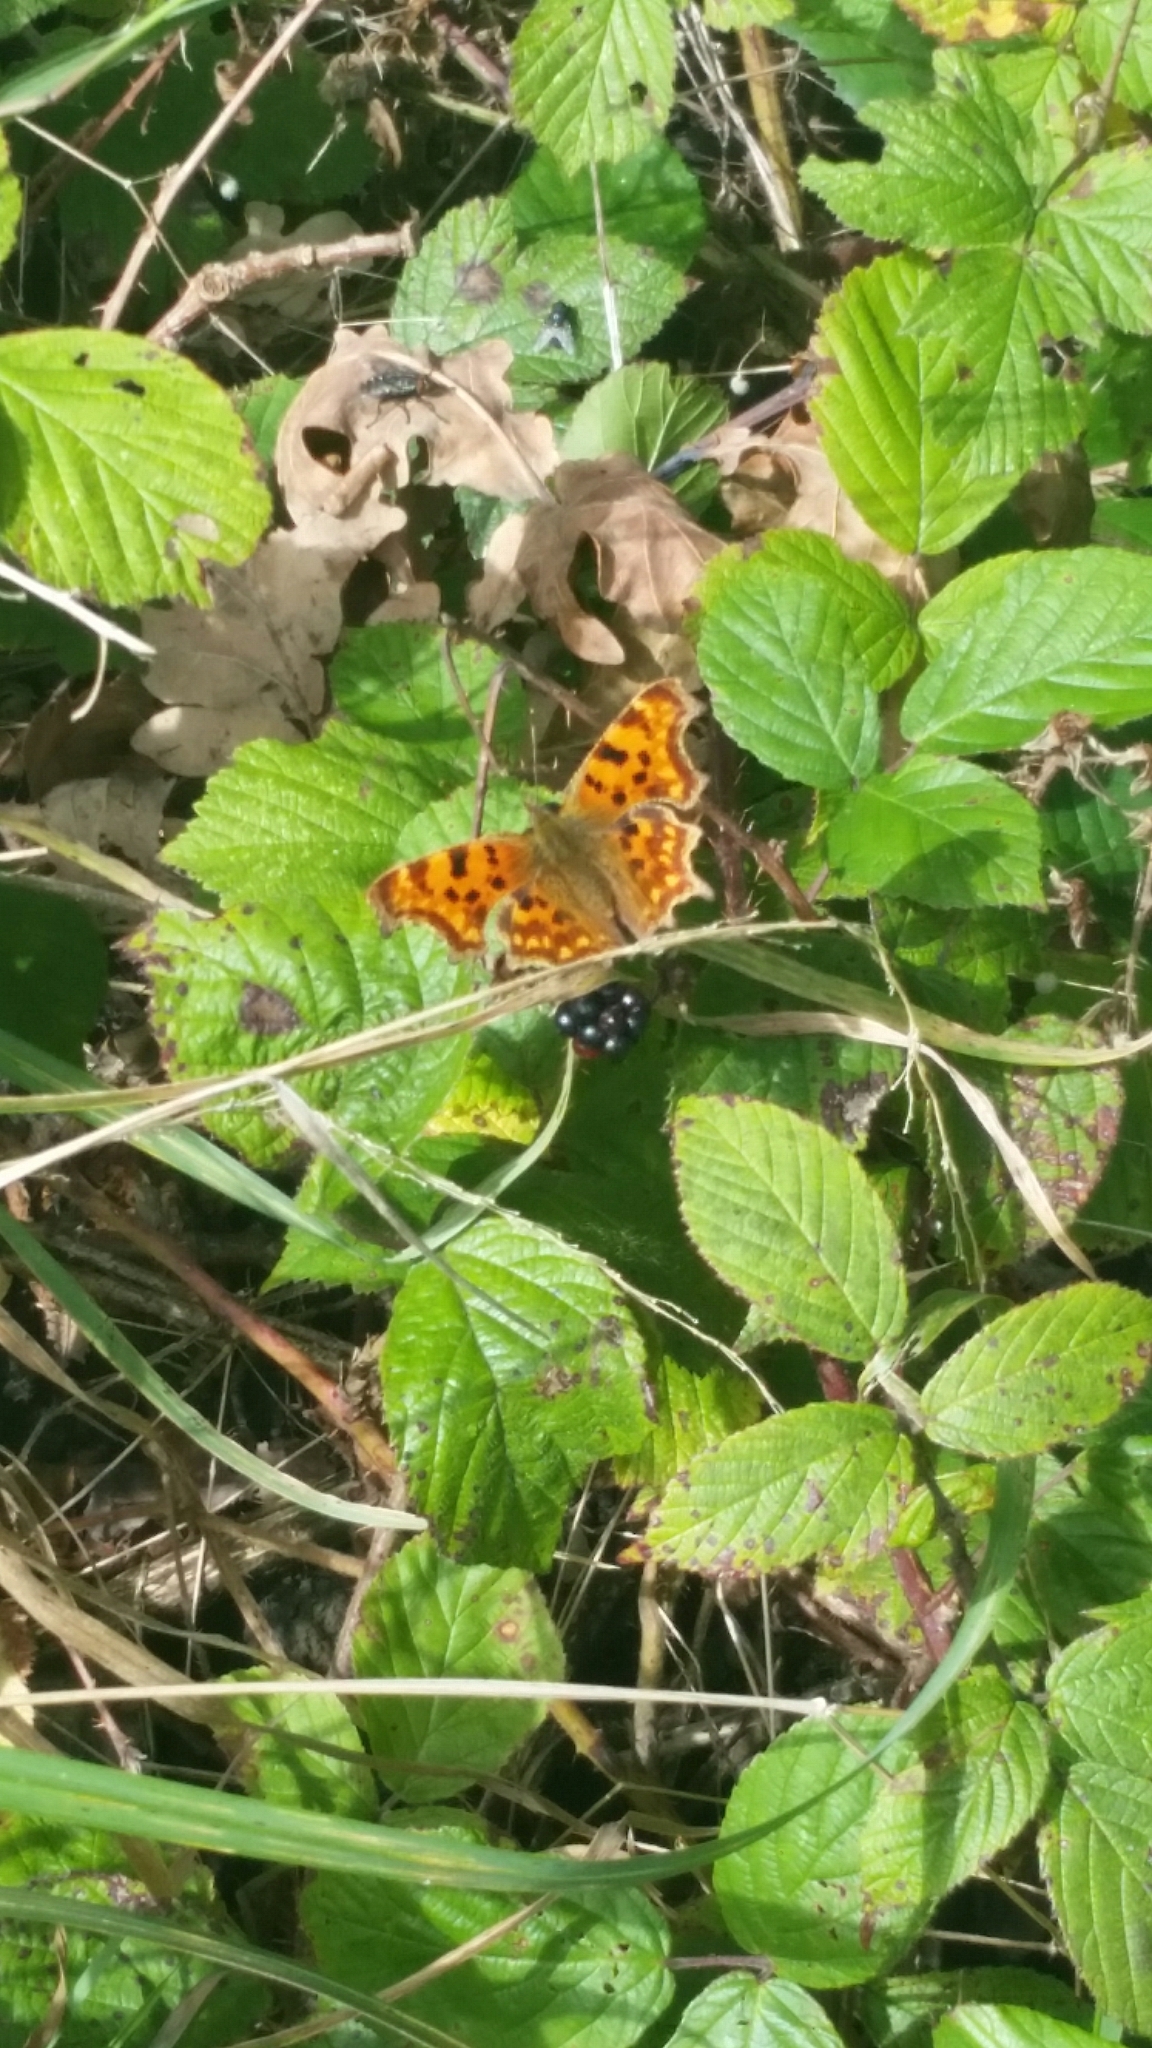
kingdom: Animalia
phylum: Arthropoda
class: Insecta
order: Lepidoptera
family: Nymphalidae
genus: Polygonia
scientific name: Polygonia c-album
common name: Comma
